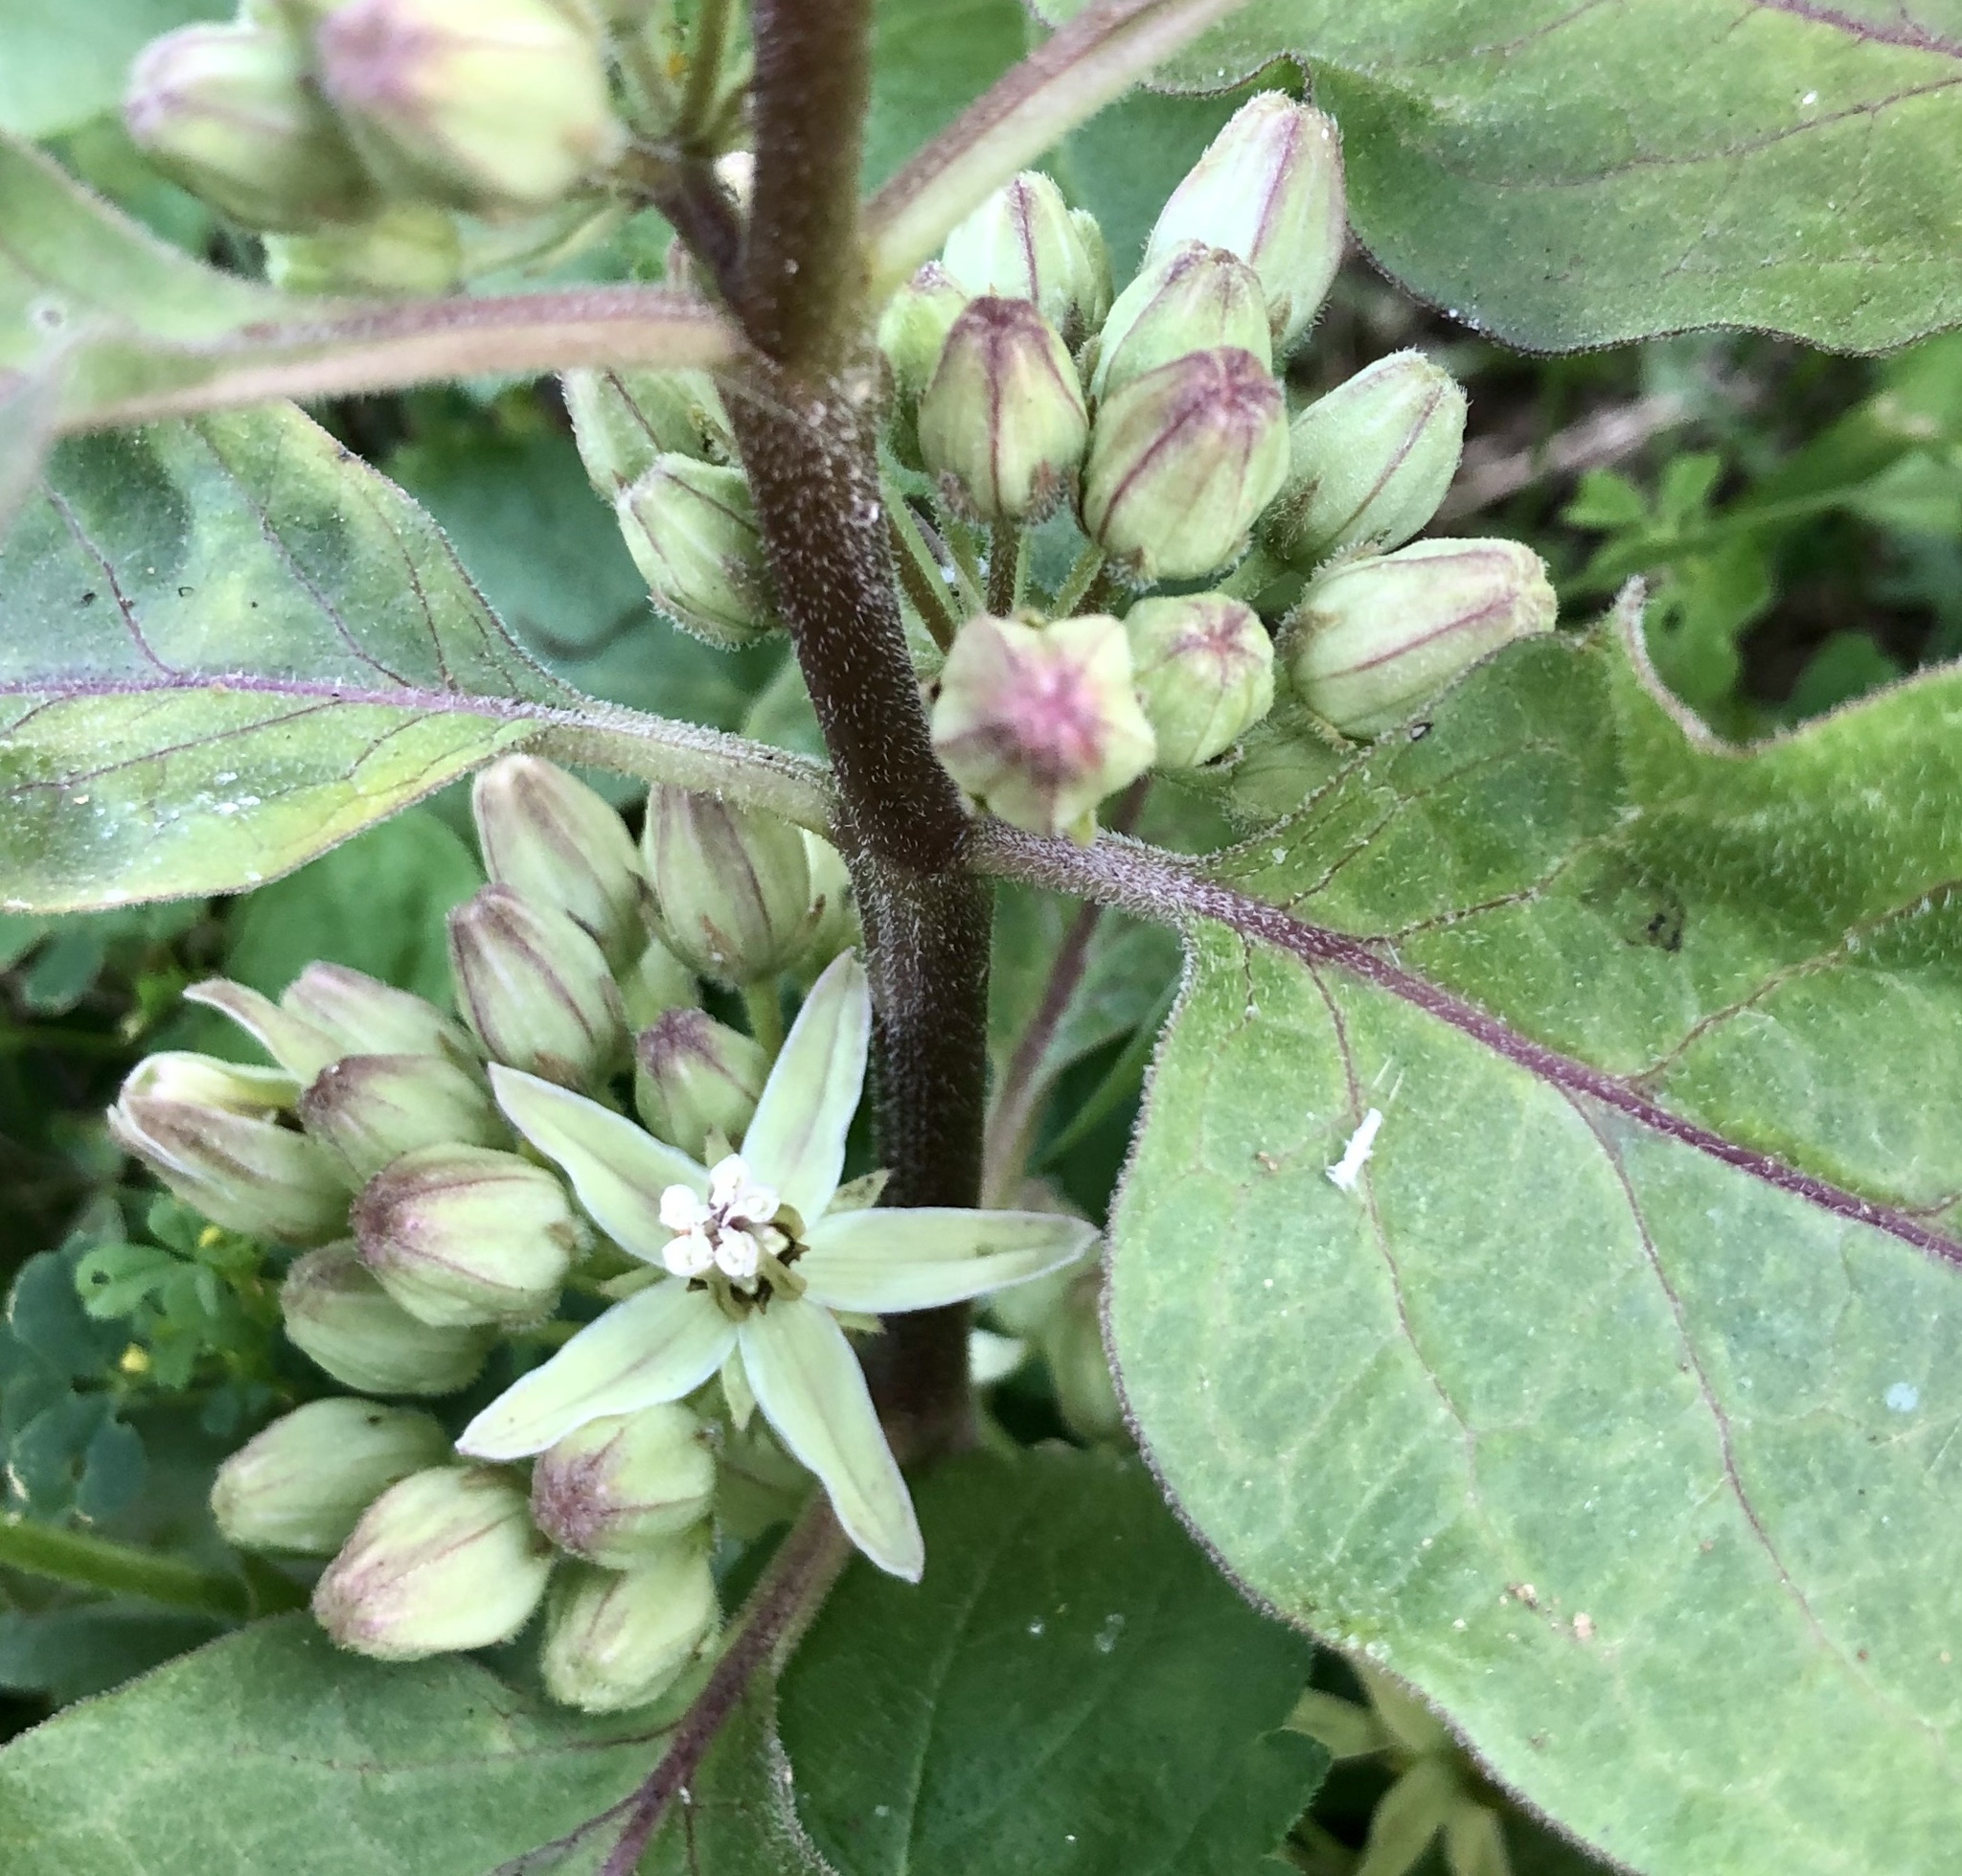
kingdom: Plantae
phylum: Tracheophyta
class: Magnoliopsida
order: Gentianales
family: Apocynaceae
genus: Asclepias
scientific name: Asclepias oenotheroides
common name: Zizotes milkweed
